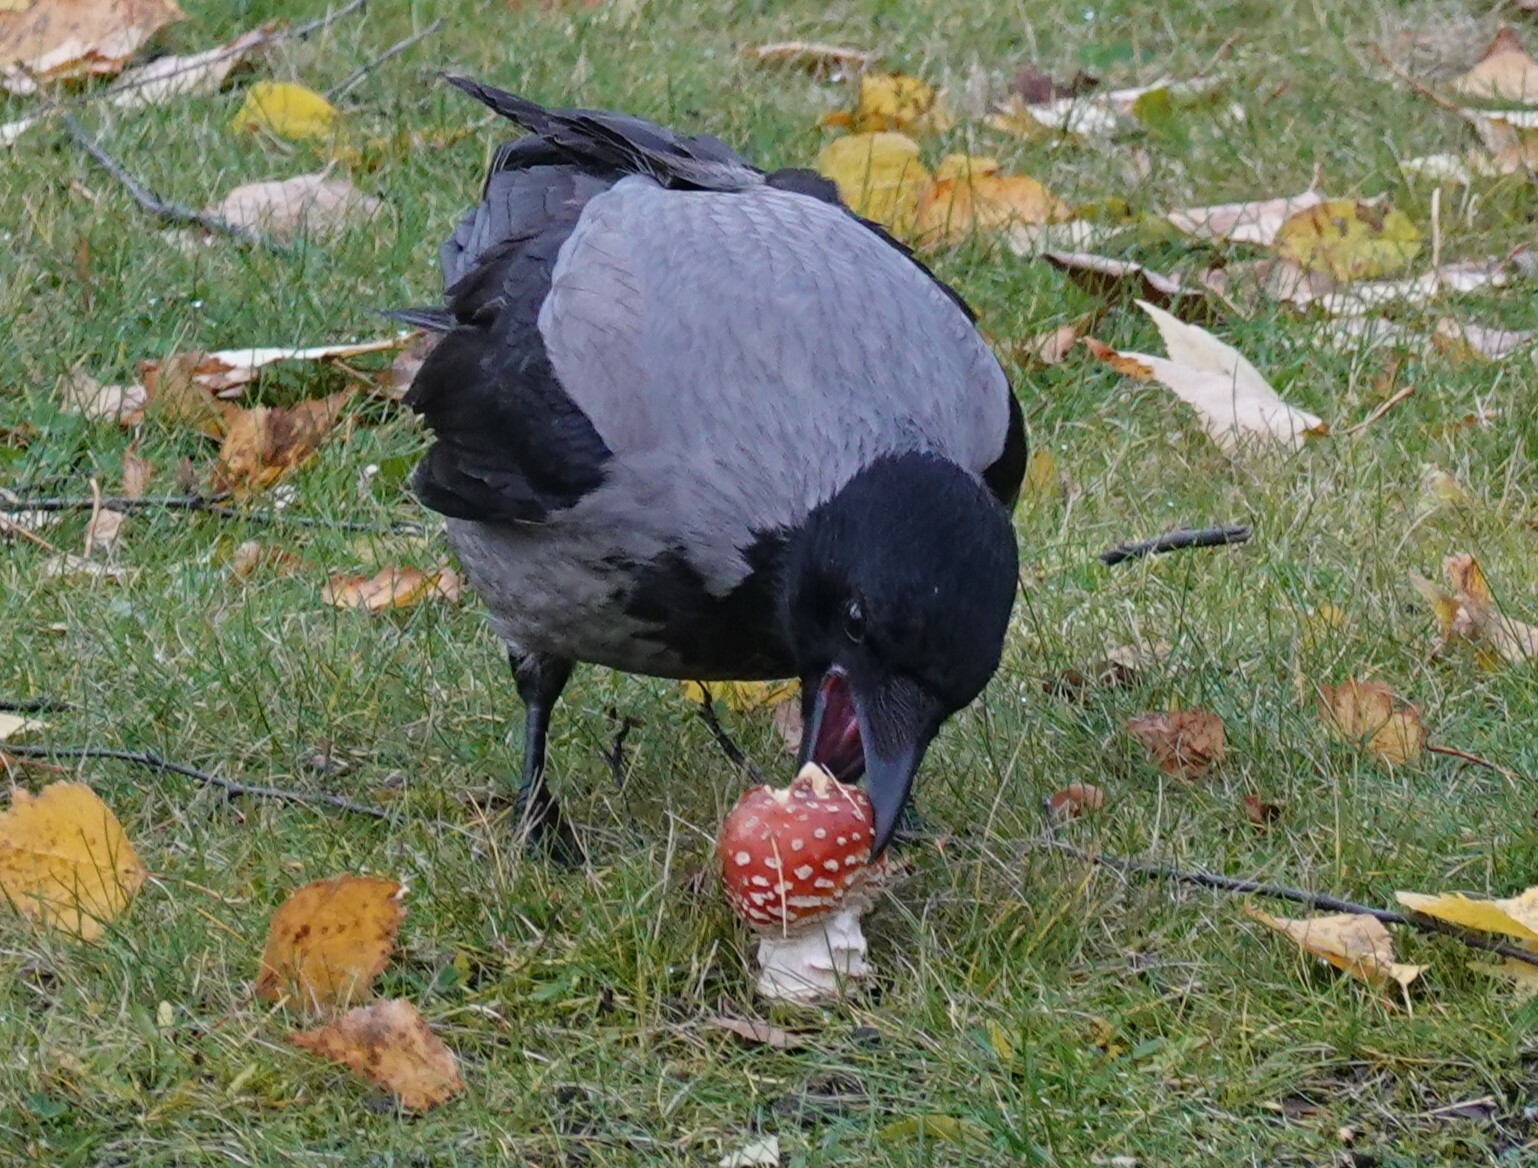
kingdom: Animalia
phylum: Chordata
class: Aves
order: Passeriformes
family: Corvidae
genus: Corvus
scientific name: Corvus cornix
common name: Hooded crow
